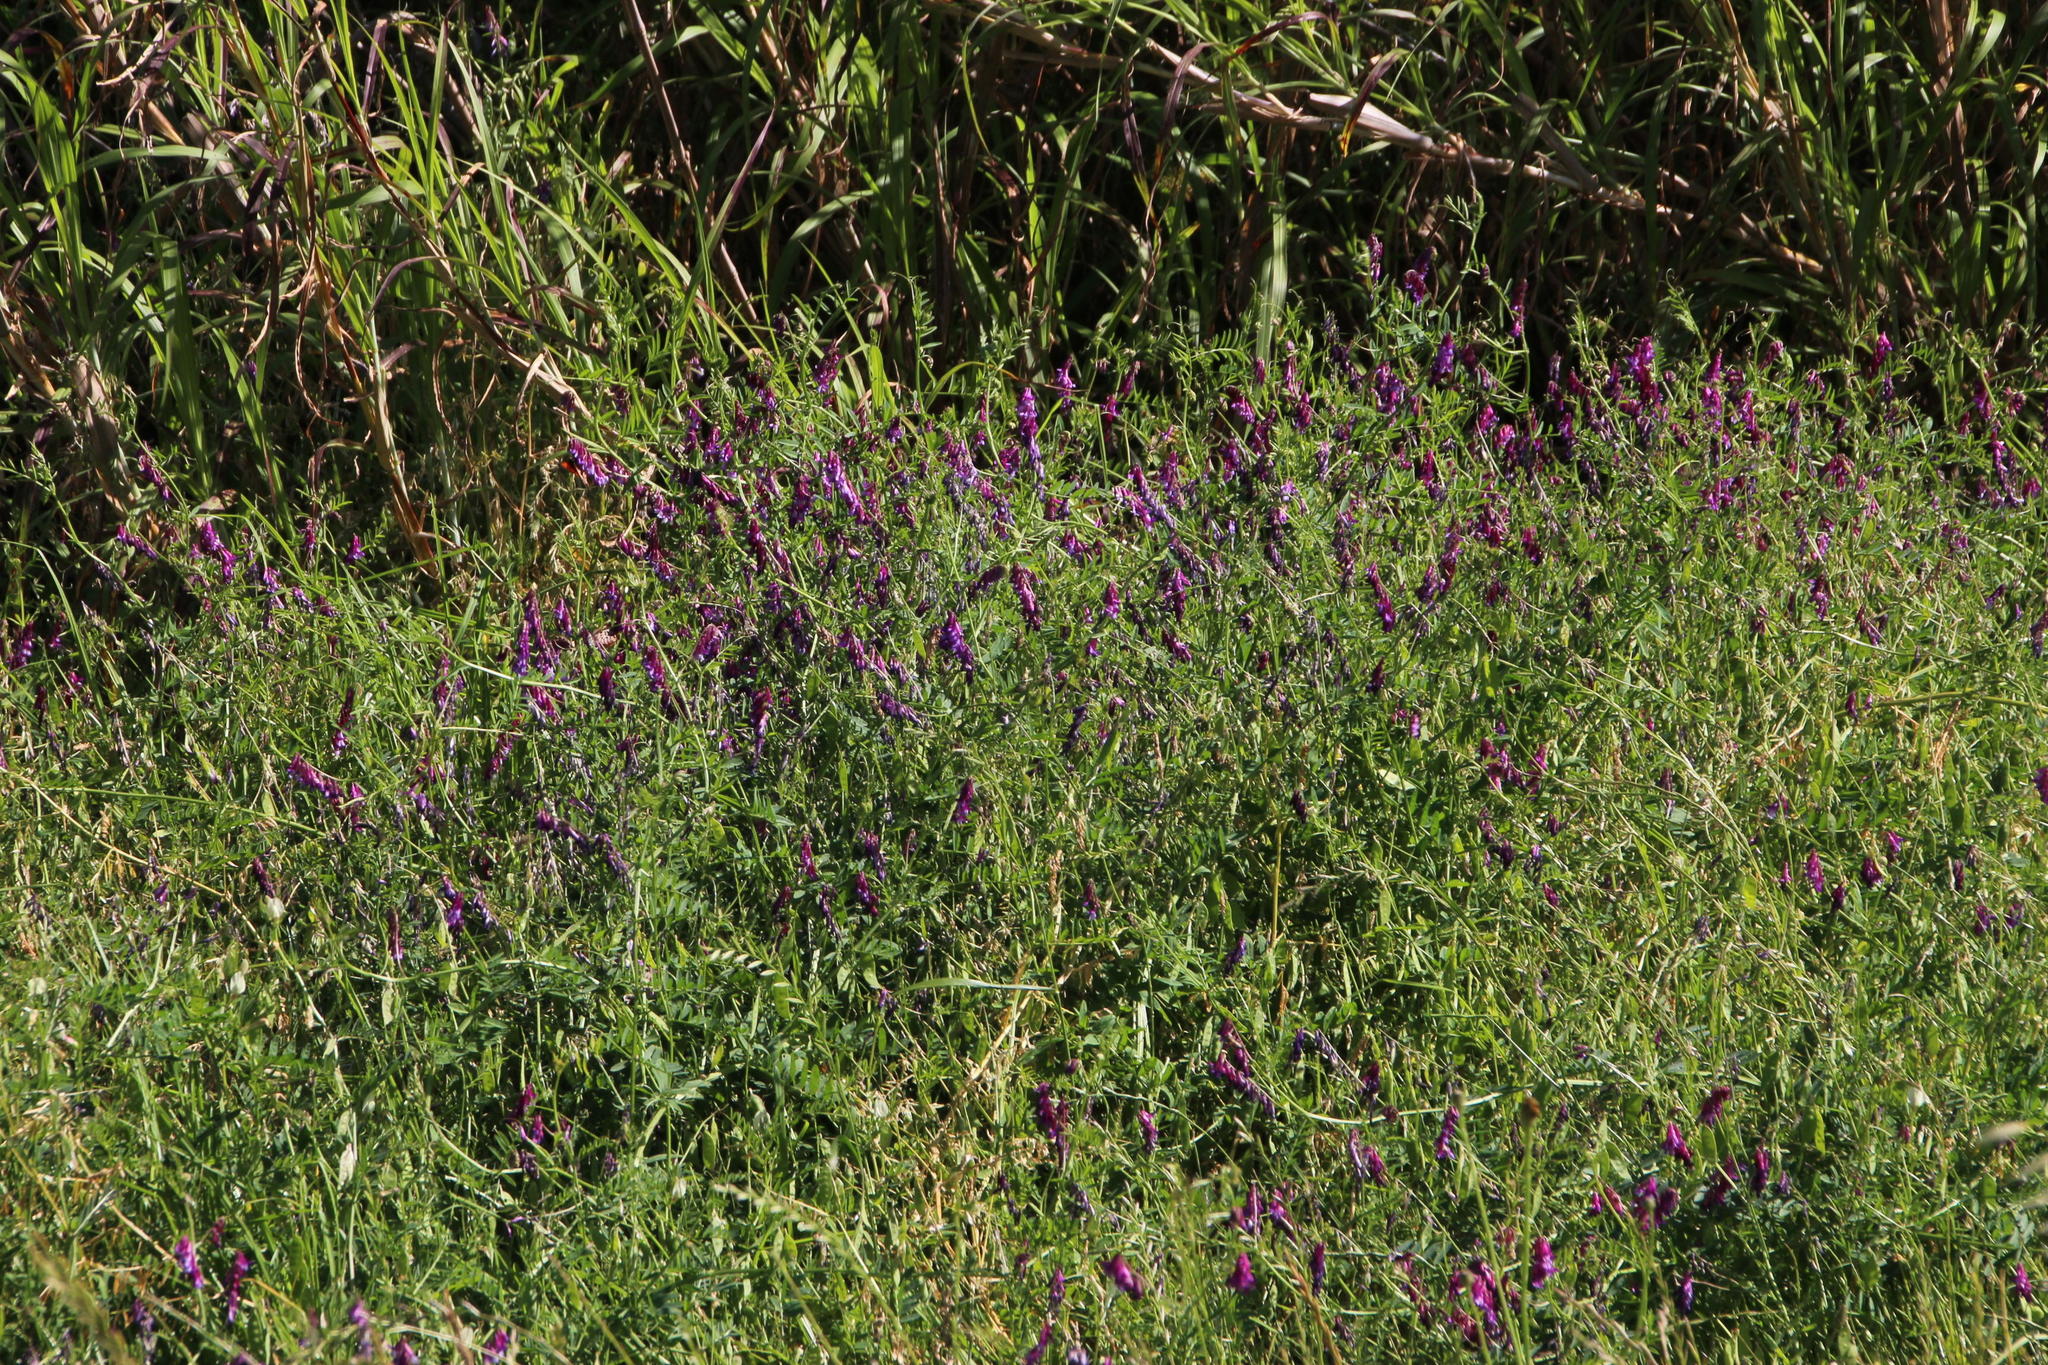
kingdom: Plantae
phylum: Tracheophyta
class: Magnoliopsida
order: Fabales
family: Fabaceae
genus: Vicia
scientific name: Vicia eriocarpa
